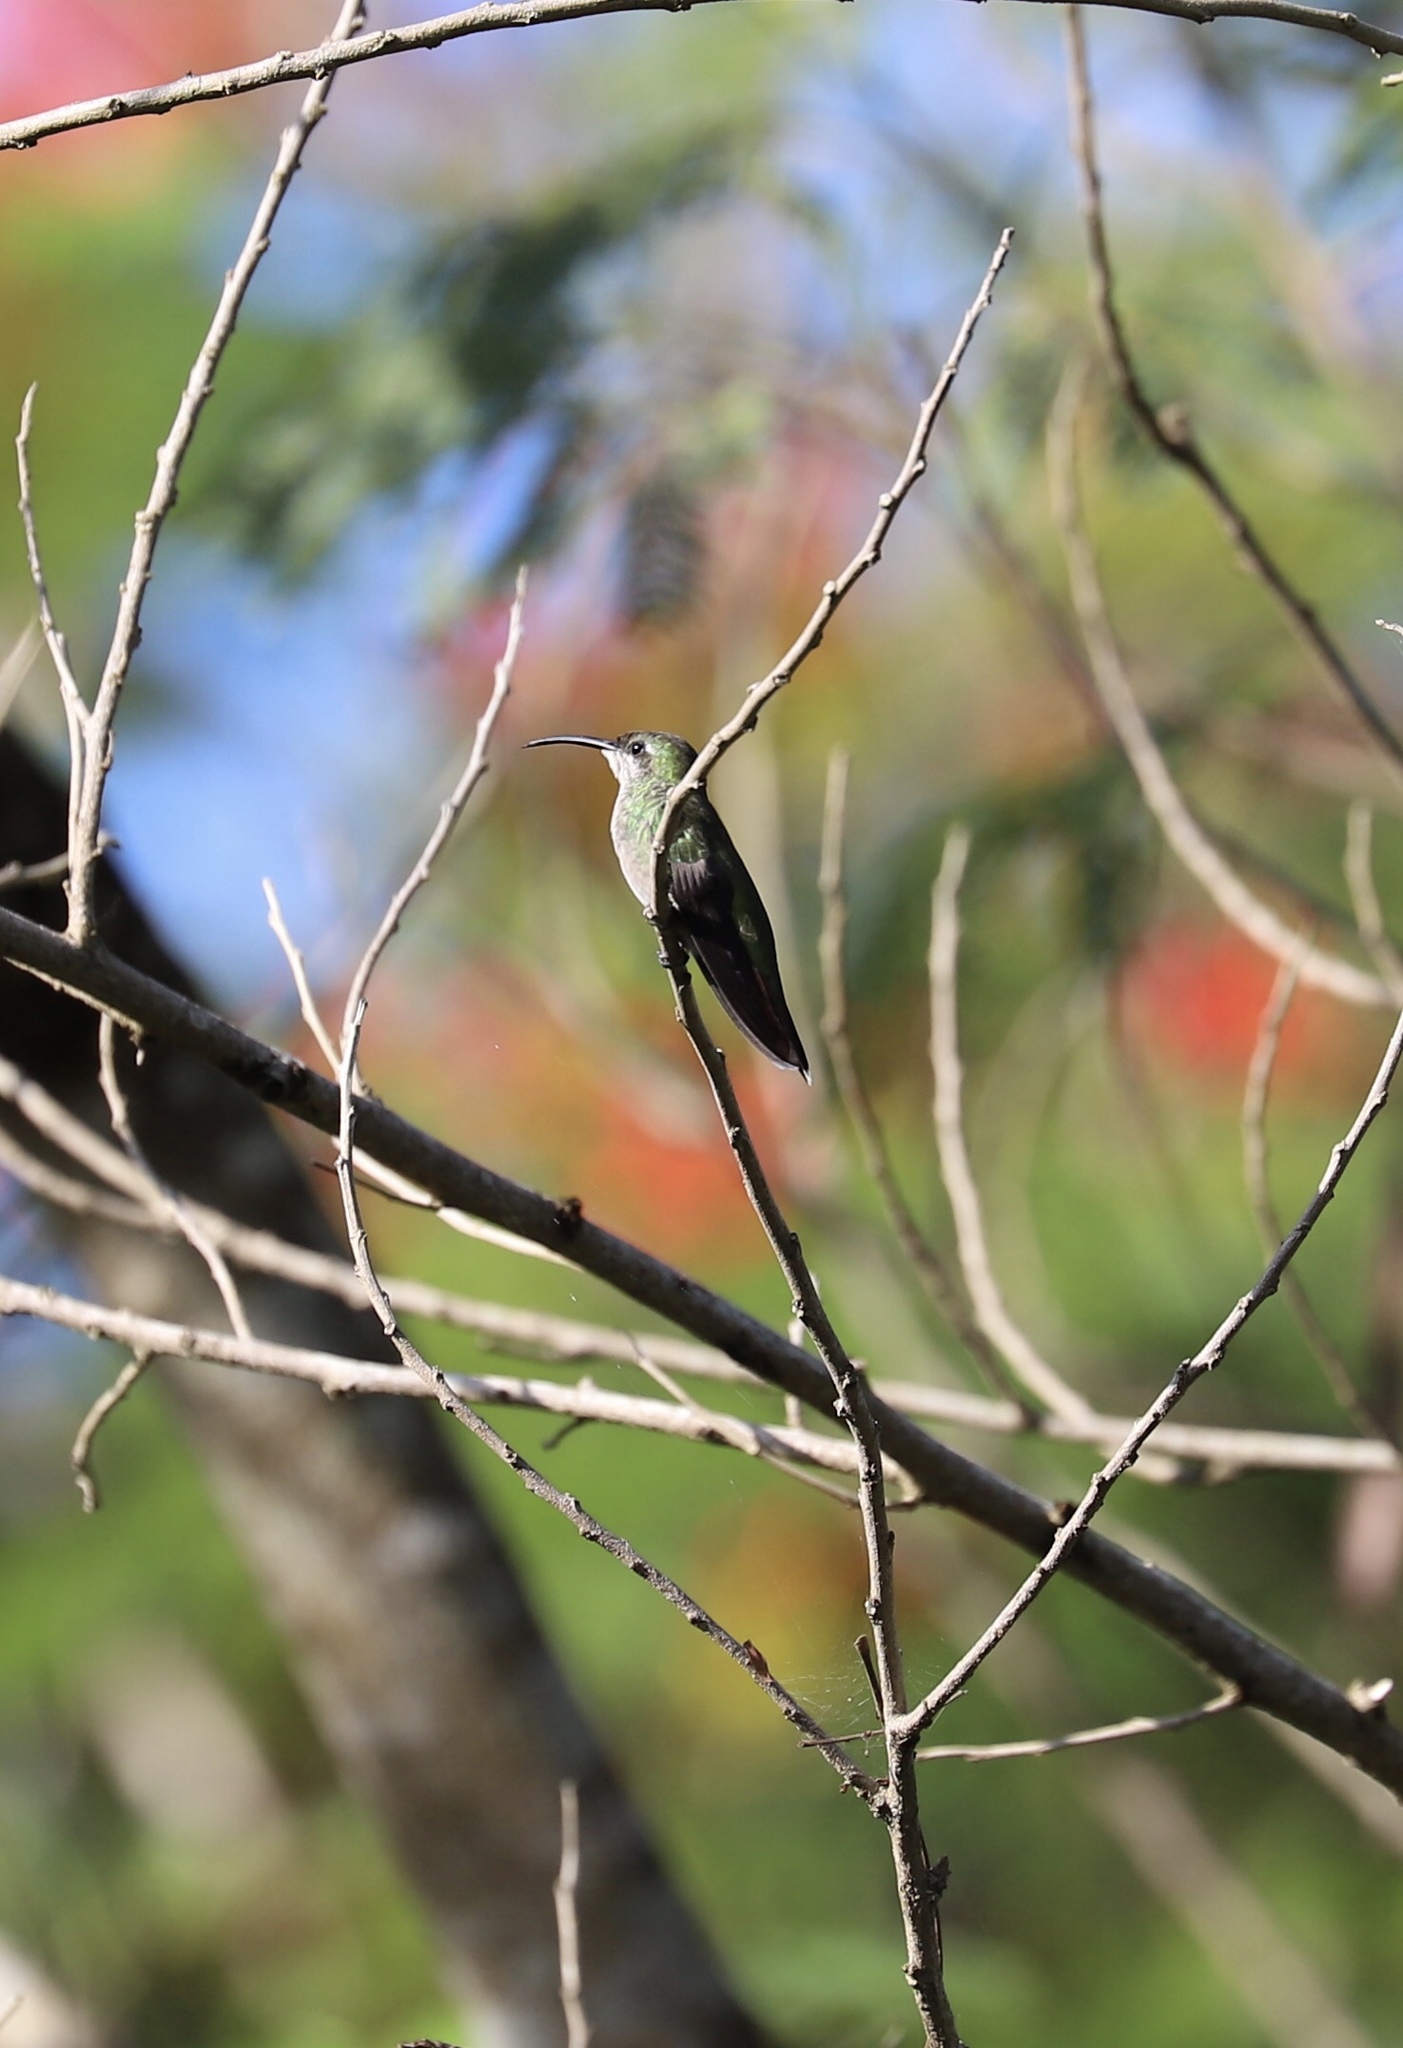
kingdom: Animalia
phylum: Chordata
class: Aves
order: Apodiformes
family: Trochilidae
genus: Anthracothorax
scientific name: Anthracothorax dominicus
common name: Antillean mango
